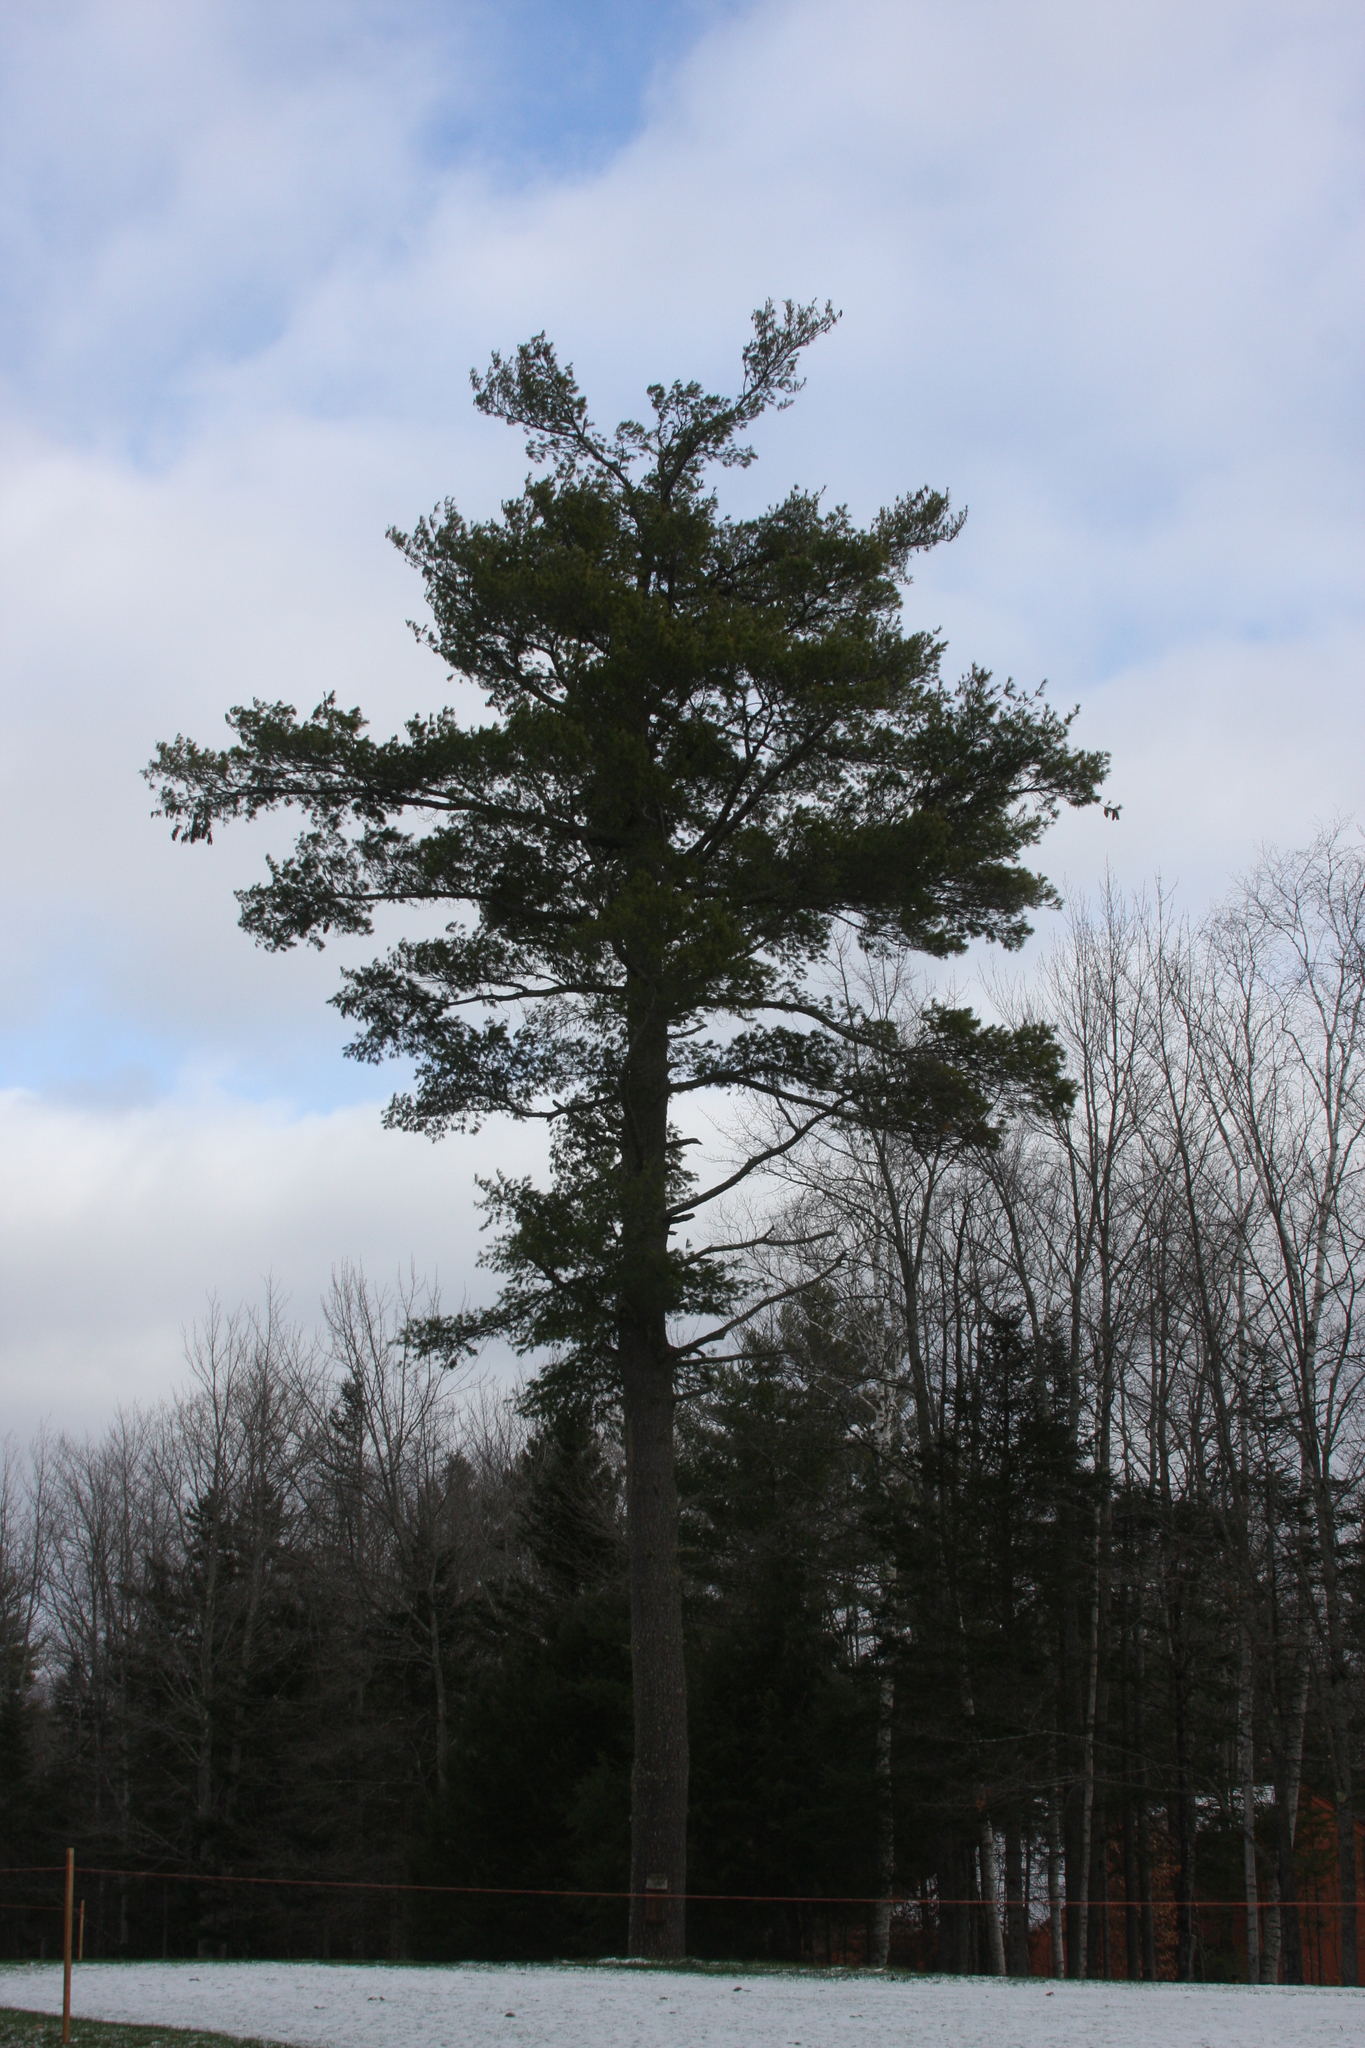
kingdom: Plantae
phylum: Tracheophyta
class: Pinopsida
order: Pinales
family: Pinaceae
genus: Pinus
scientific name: Pinus strobus
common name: Weymouth pine
